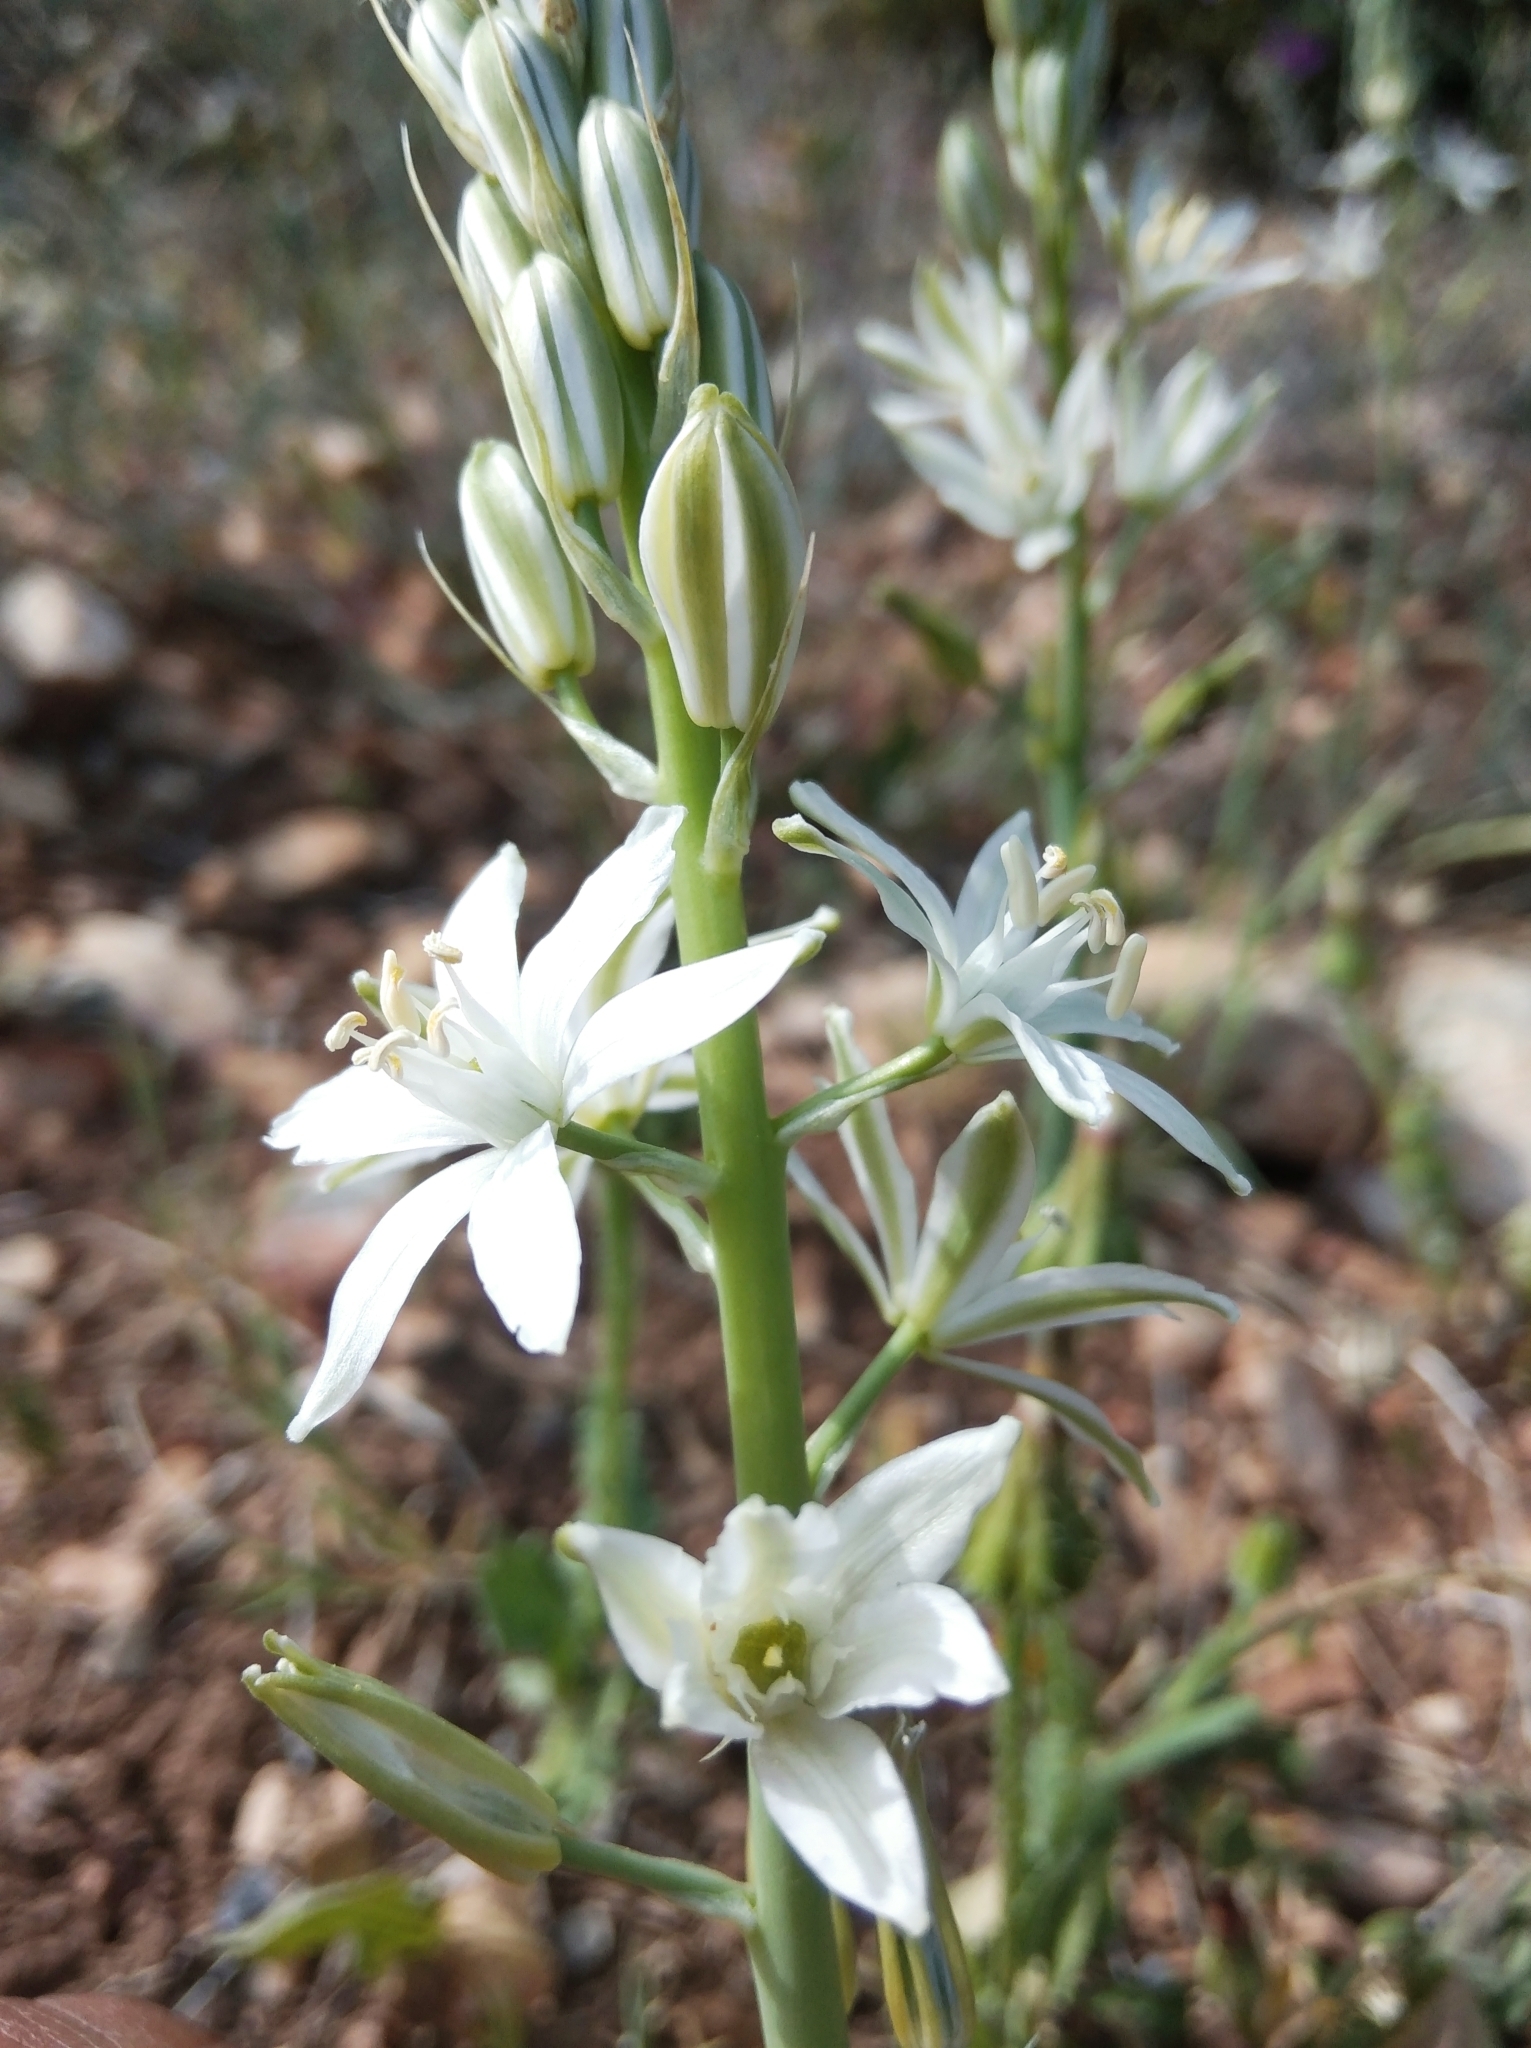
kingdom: Plantae
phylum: Tracheophyta
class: Liliopsida
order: Asparagales
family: Asparagaceae
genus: Ornithogalum
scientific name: Ornithogalum narbonense
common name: Bath-asparagus
